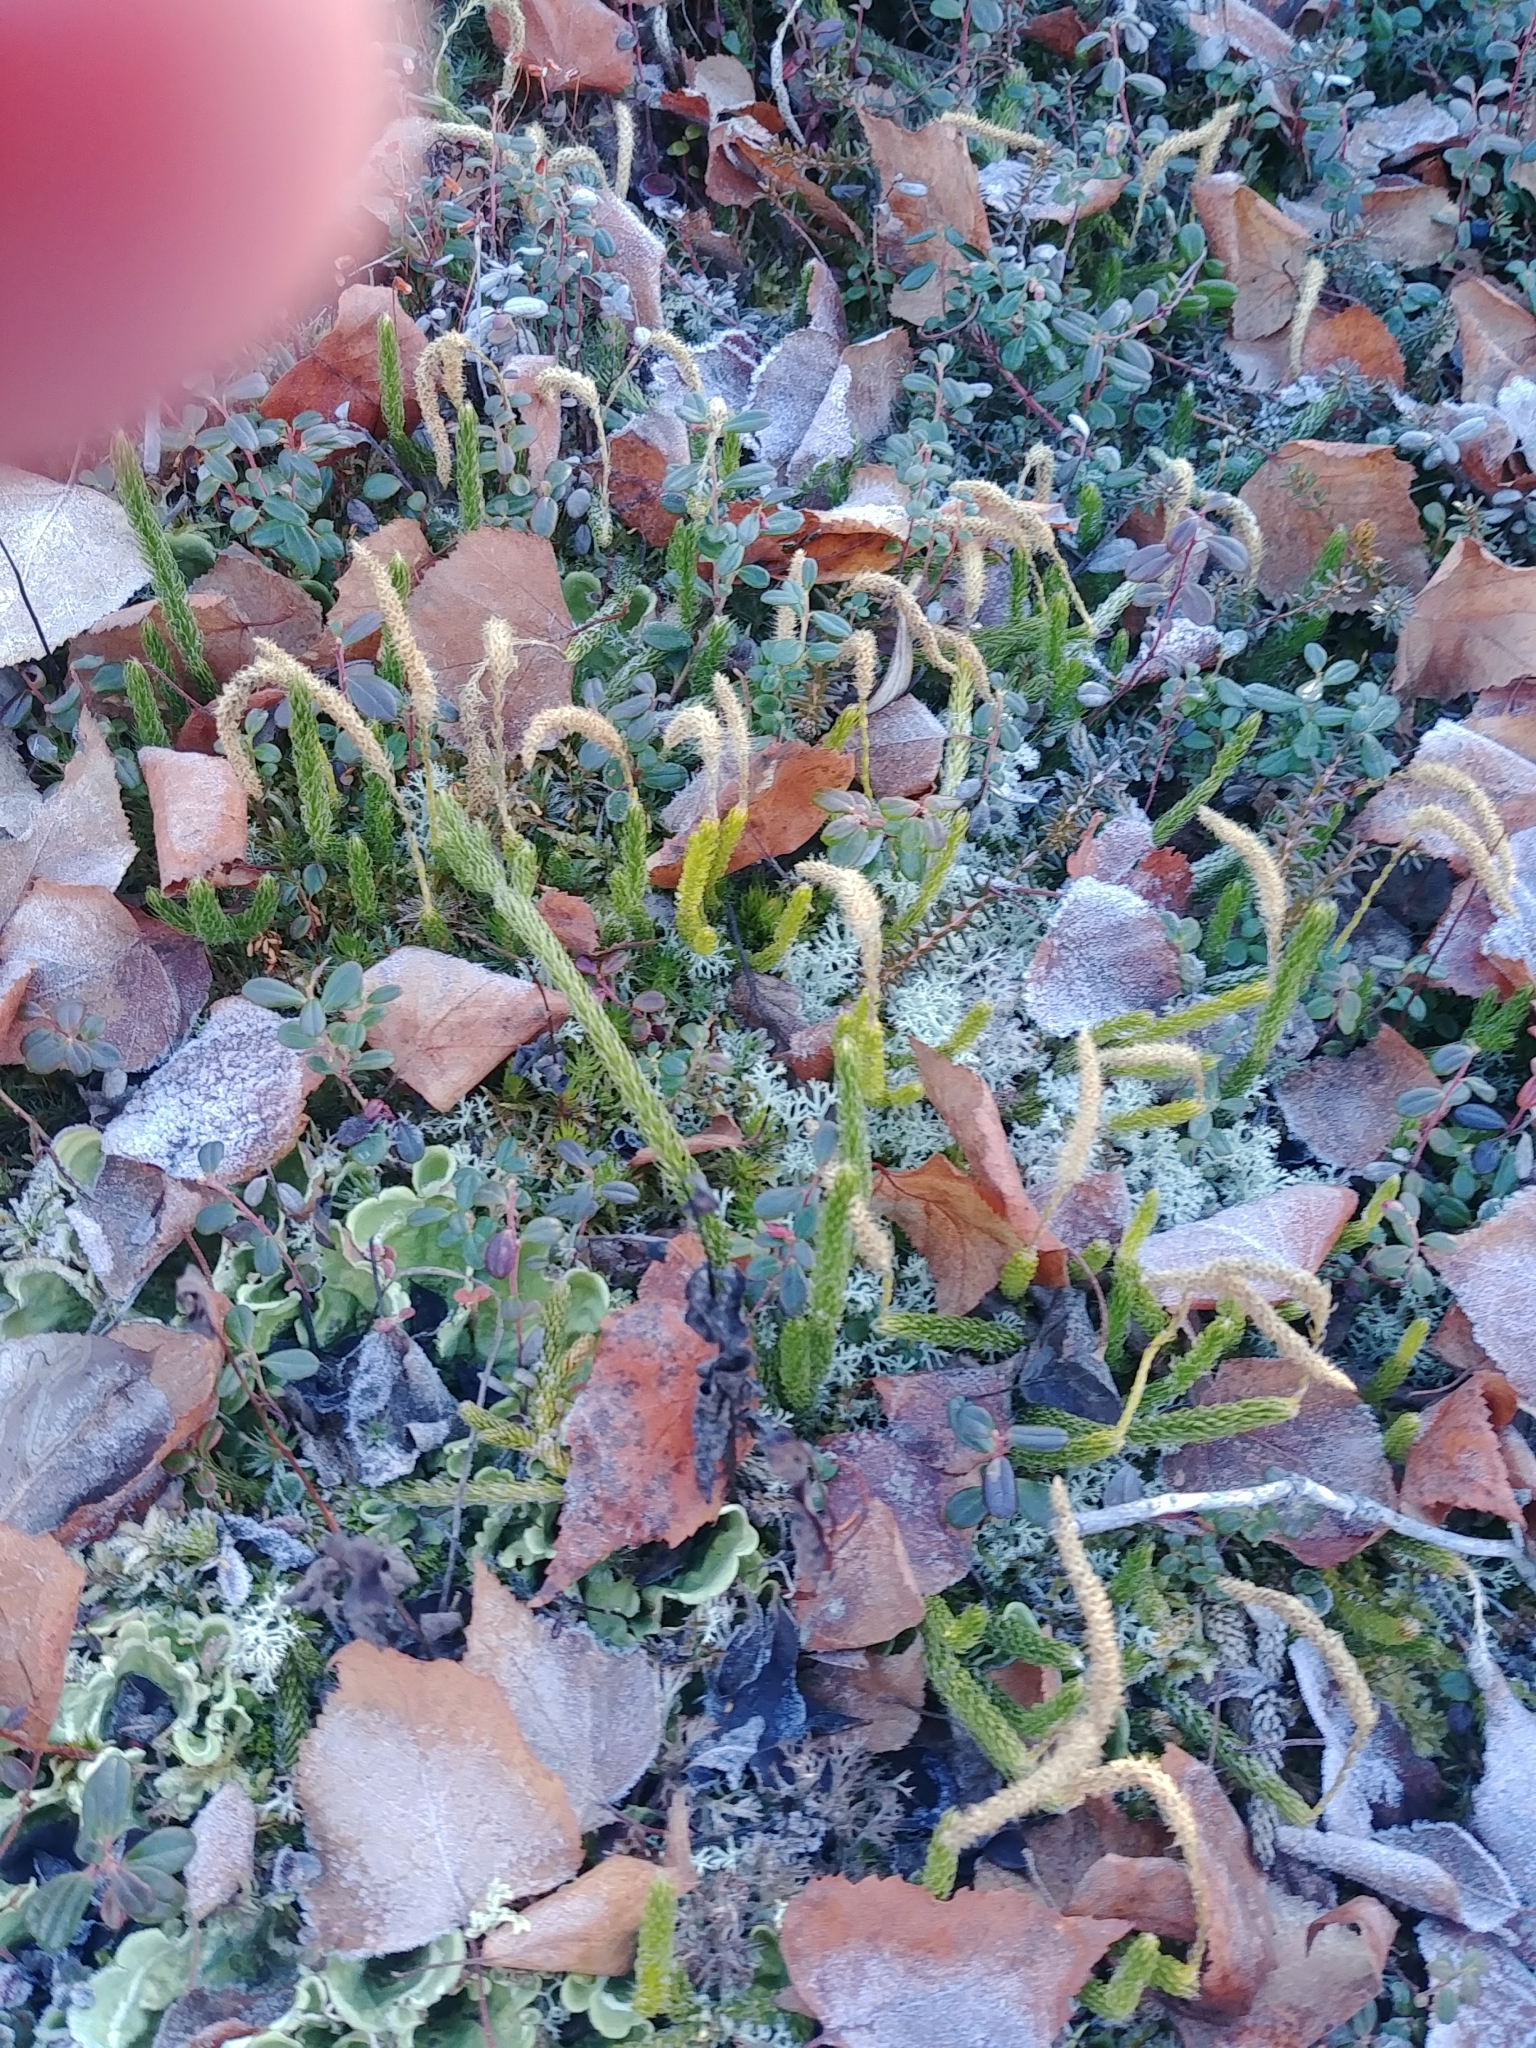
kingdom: Plantae
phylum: Tracheophyta
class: Lycopodiopsida
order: Lycopodiales
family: Lycopodiaceae
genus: Lycopodium
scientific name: Lycopodium lagopus
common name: One-cone clubmoss
